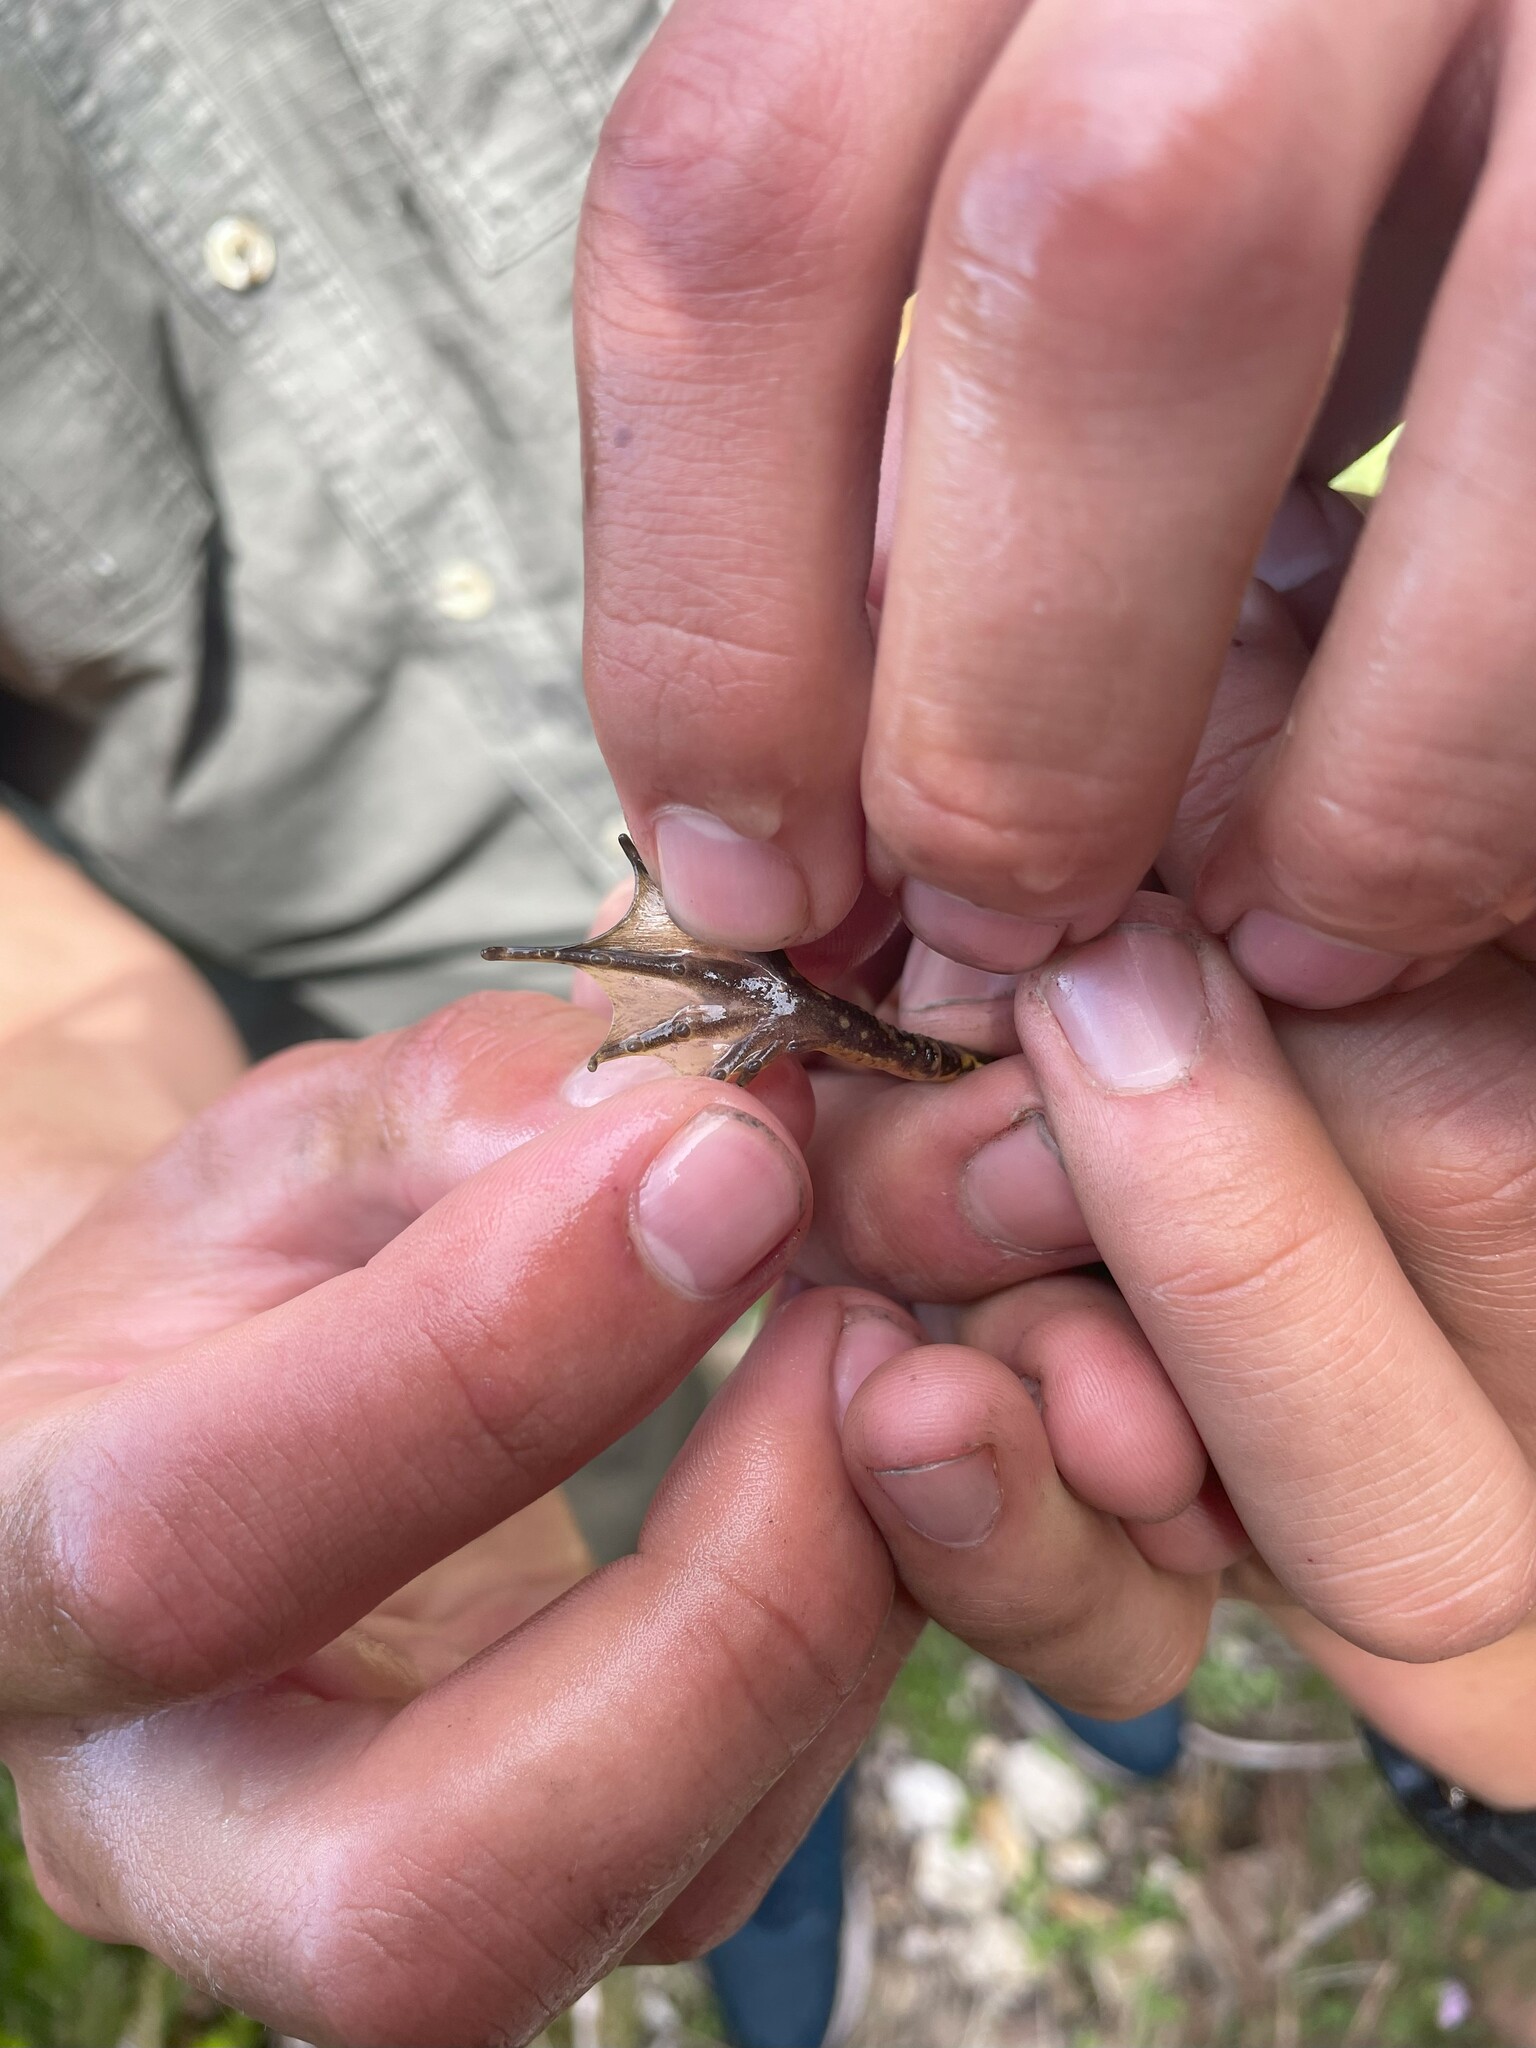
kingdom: Animalia
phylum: Chordata
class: Amphibia
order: Anura
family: Pyxicephalidae
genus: Amietia
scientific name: Amietia vandijki
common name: Van dijk's river frog
